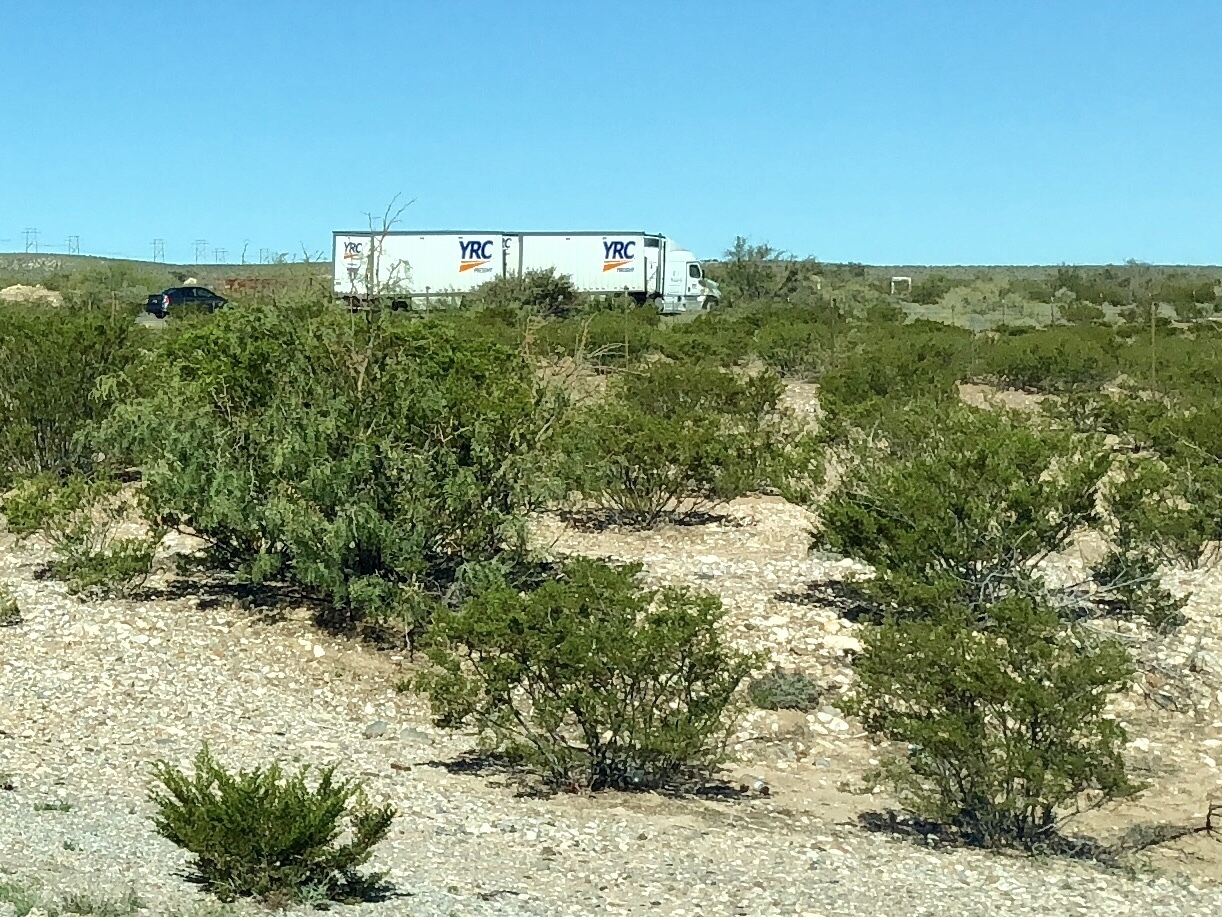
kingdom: Plantae
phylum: Tracheophyta
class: Magnoliopsida
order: Zygophyllales
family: Zygophyllaceae
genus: Larrea
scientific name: Larrea tridentata
